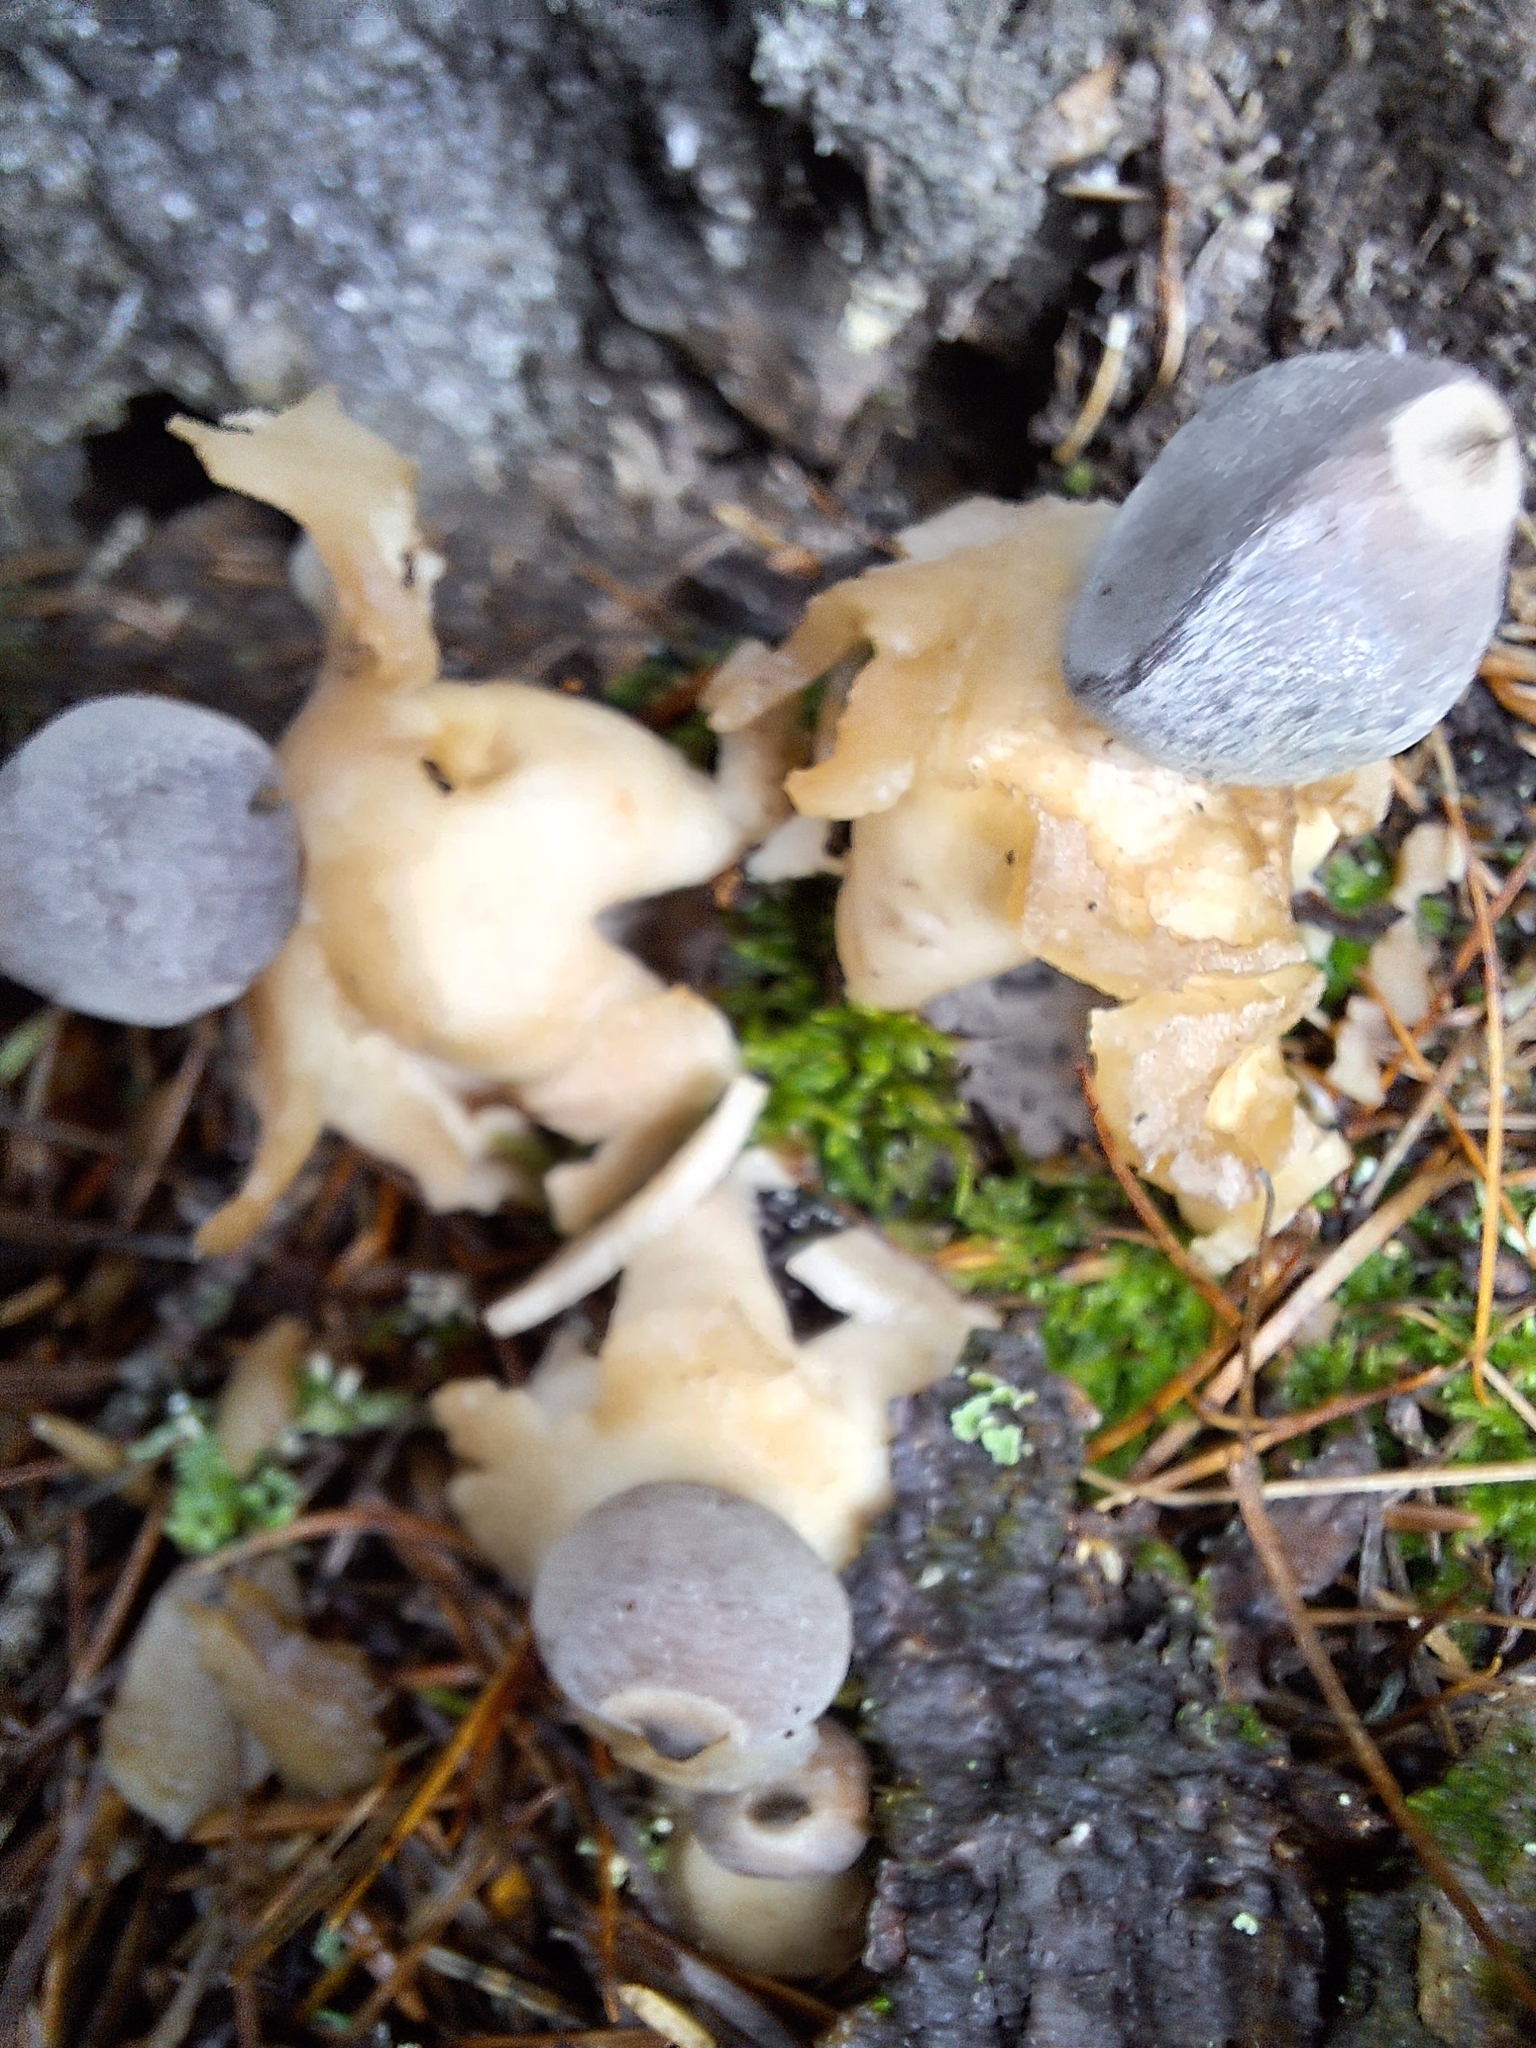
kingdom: Fungi
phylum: Basidiomycota
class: Agaricomycetes
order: Geastrales
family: Geastraceae
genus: Geastrum
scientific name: Geastrum quadrifidum
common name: Rayed earthstar
